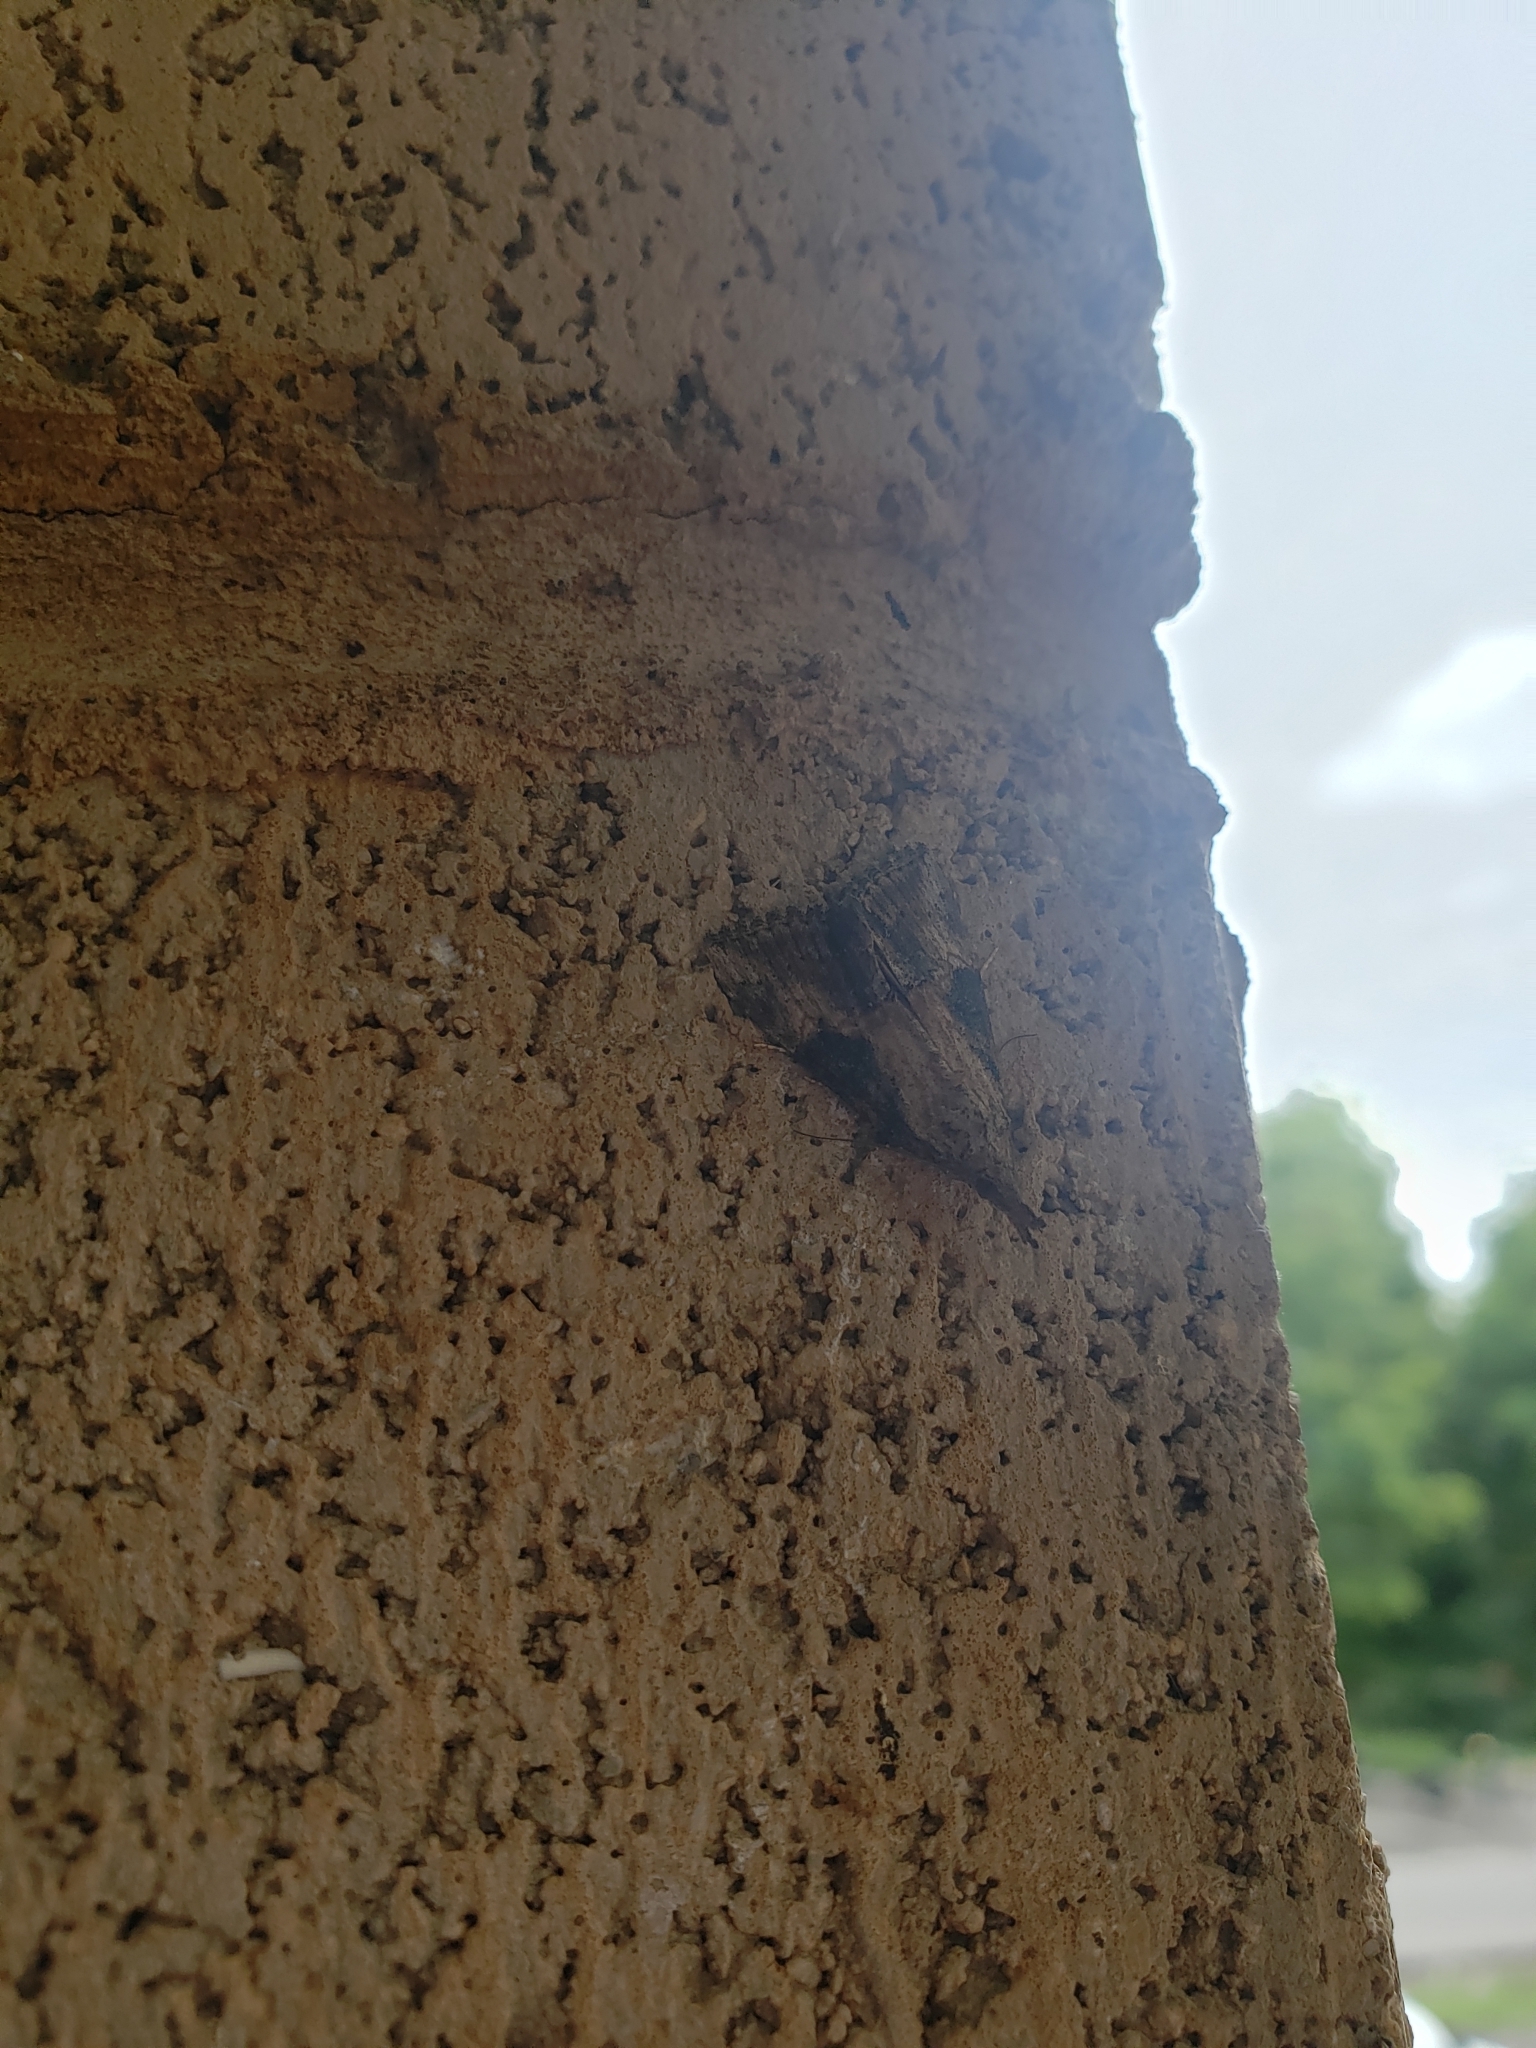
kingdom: Animalia
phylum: Arthropoda
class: Insecta
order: Lepidoptera
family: Erebidae
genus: Hypena
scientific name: Hypena scabra
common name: Green cloverworm
